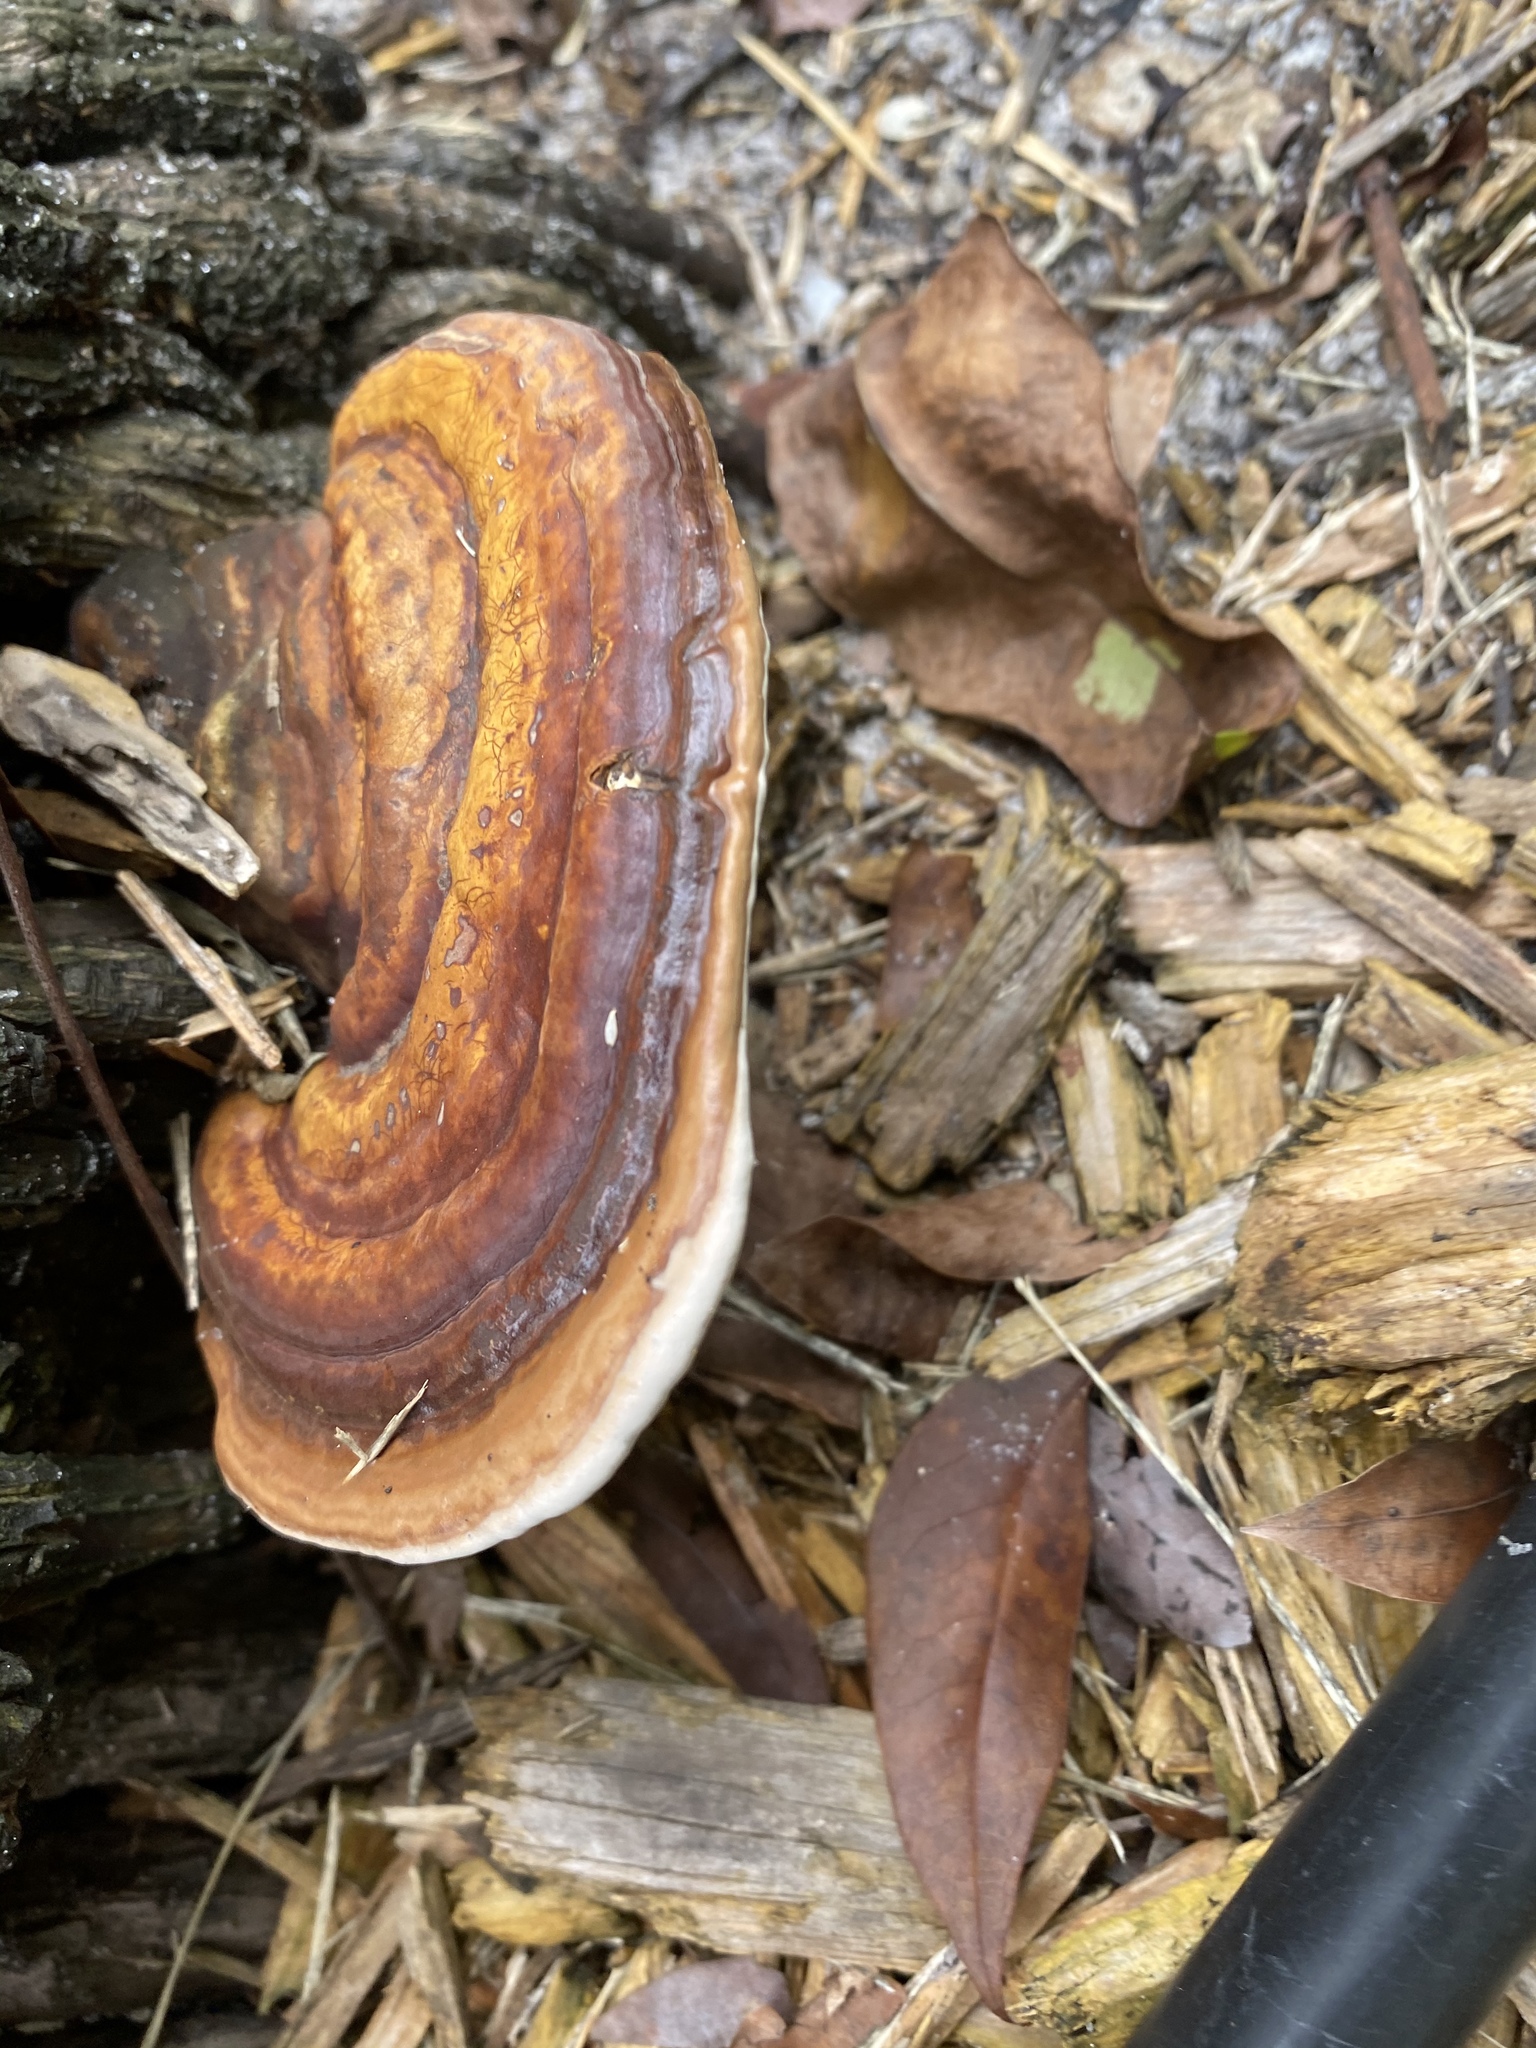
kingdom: Fungi
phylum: Basidiomycota
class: Agaricomycetes
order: Polyporales
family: Polyporaceae
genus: Ganoderma
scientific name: Ganoderma zonatum
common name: Ganoderma butt rot
